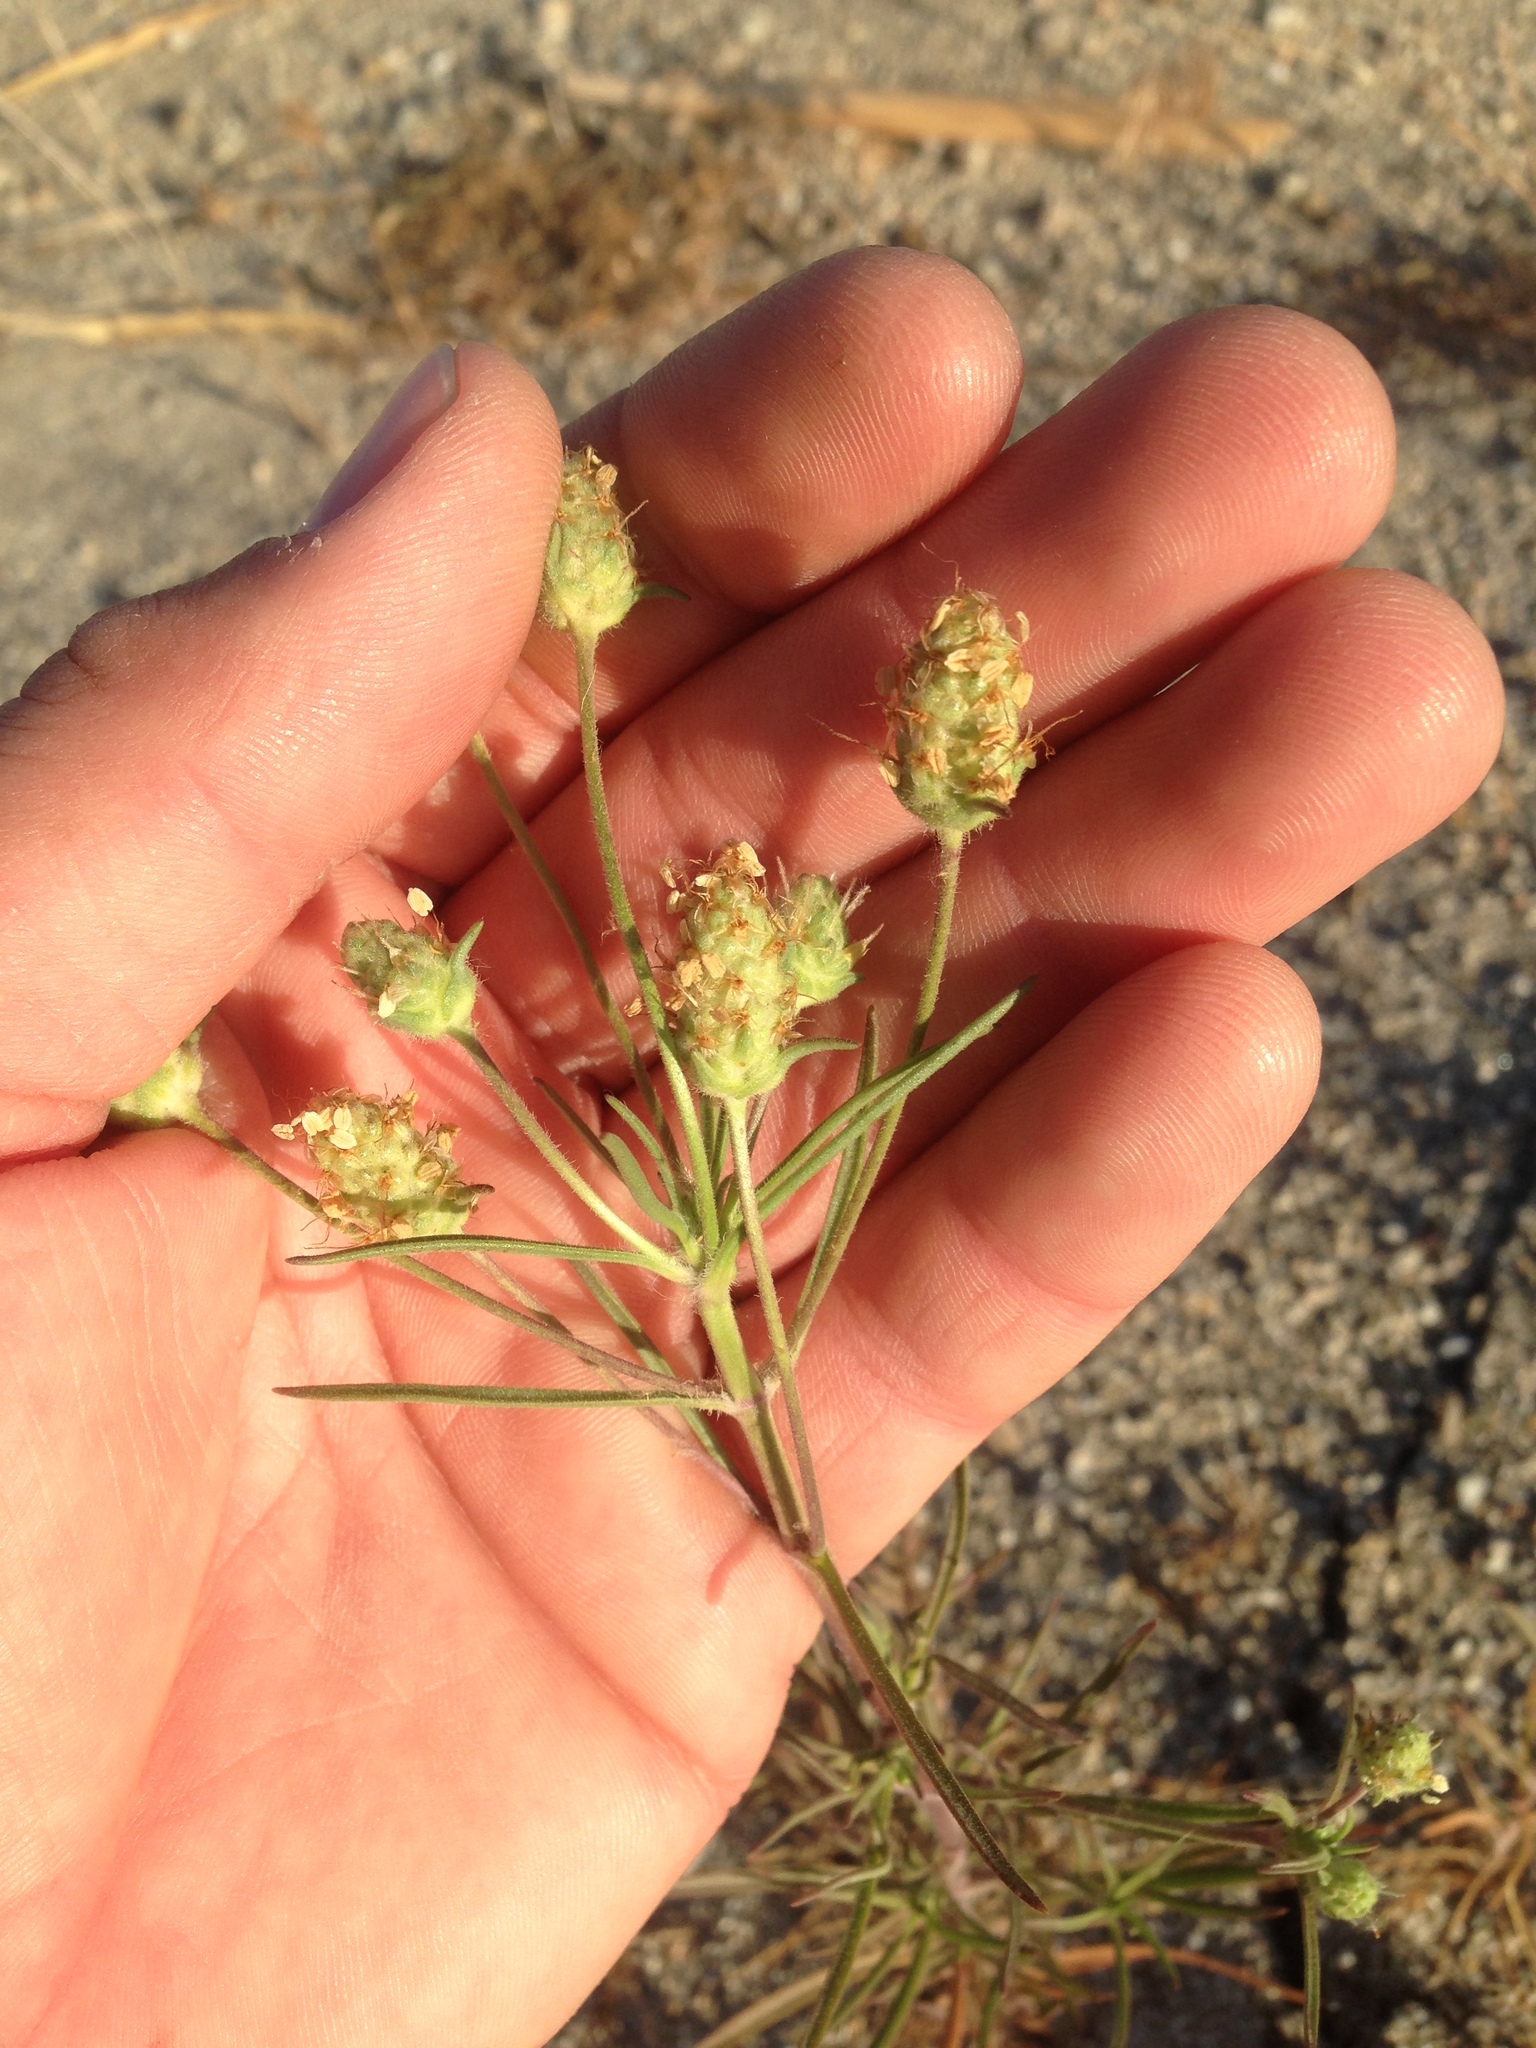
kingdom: Plantae
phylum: Tracheophyta
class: Magnoliopsida
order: Lamiales
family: Plantaginaceae
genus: Plantago
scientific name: Plantago arenaria
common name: Branched plantain
